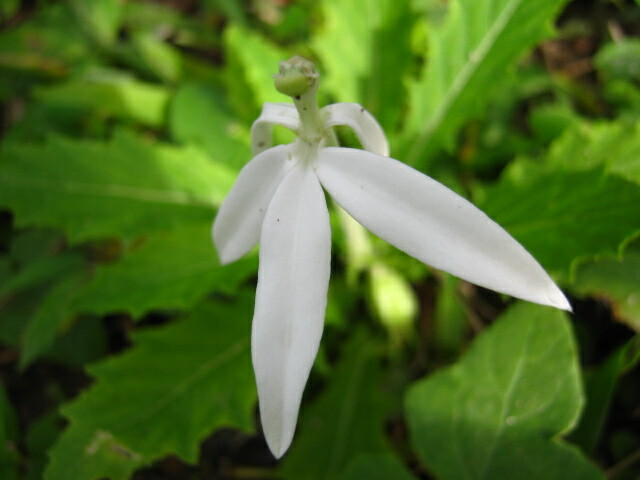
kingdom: Plantae
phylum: Tracheophyta
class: Magnoliopsida
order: Asterales
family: Campanulaceae
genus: Hippobroma
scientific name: Hippobroma longiflora
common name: Madamfate
